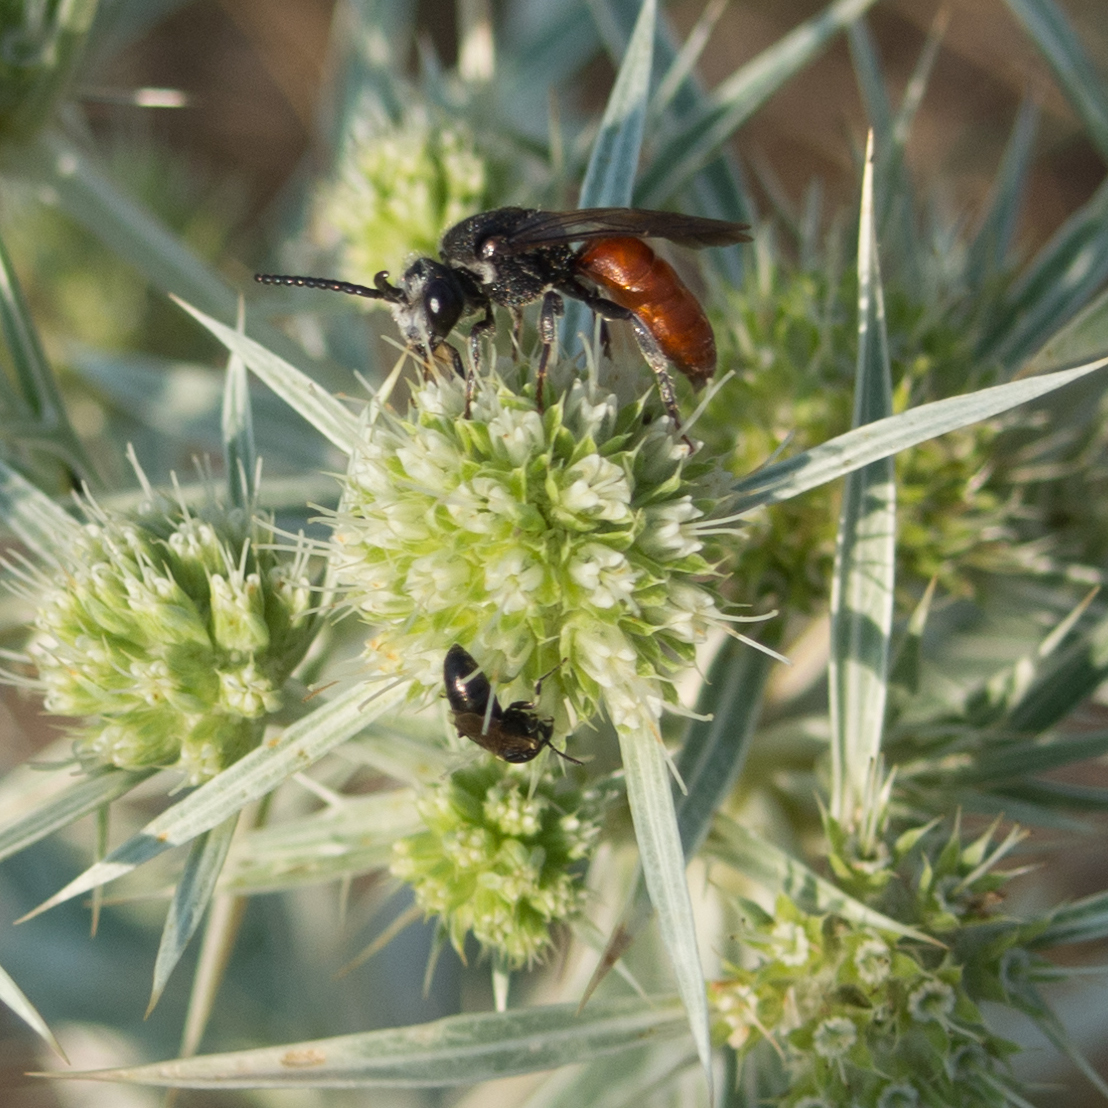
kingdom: Plantae
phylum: Tracheophyta
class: Magnoliopsida
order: Apiales
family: Apiaceae
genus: Eryngium
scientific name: Eryngium campestre
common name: Field eryngo
